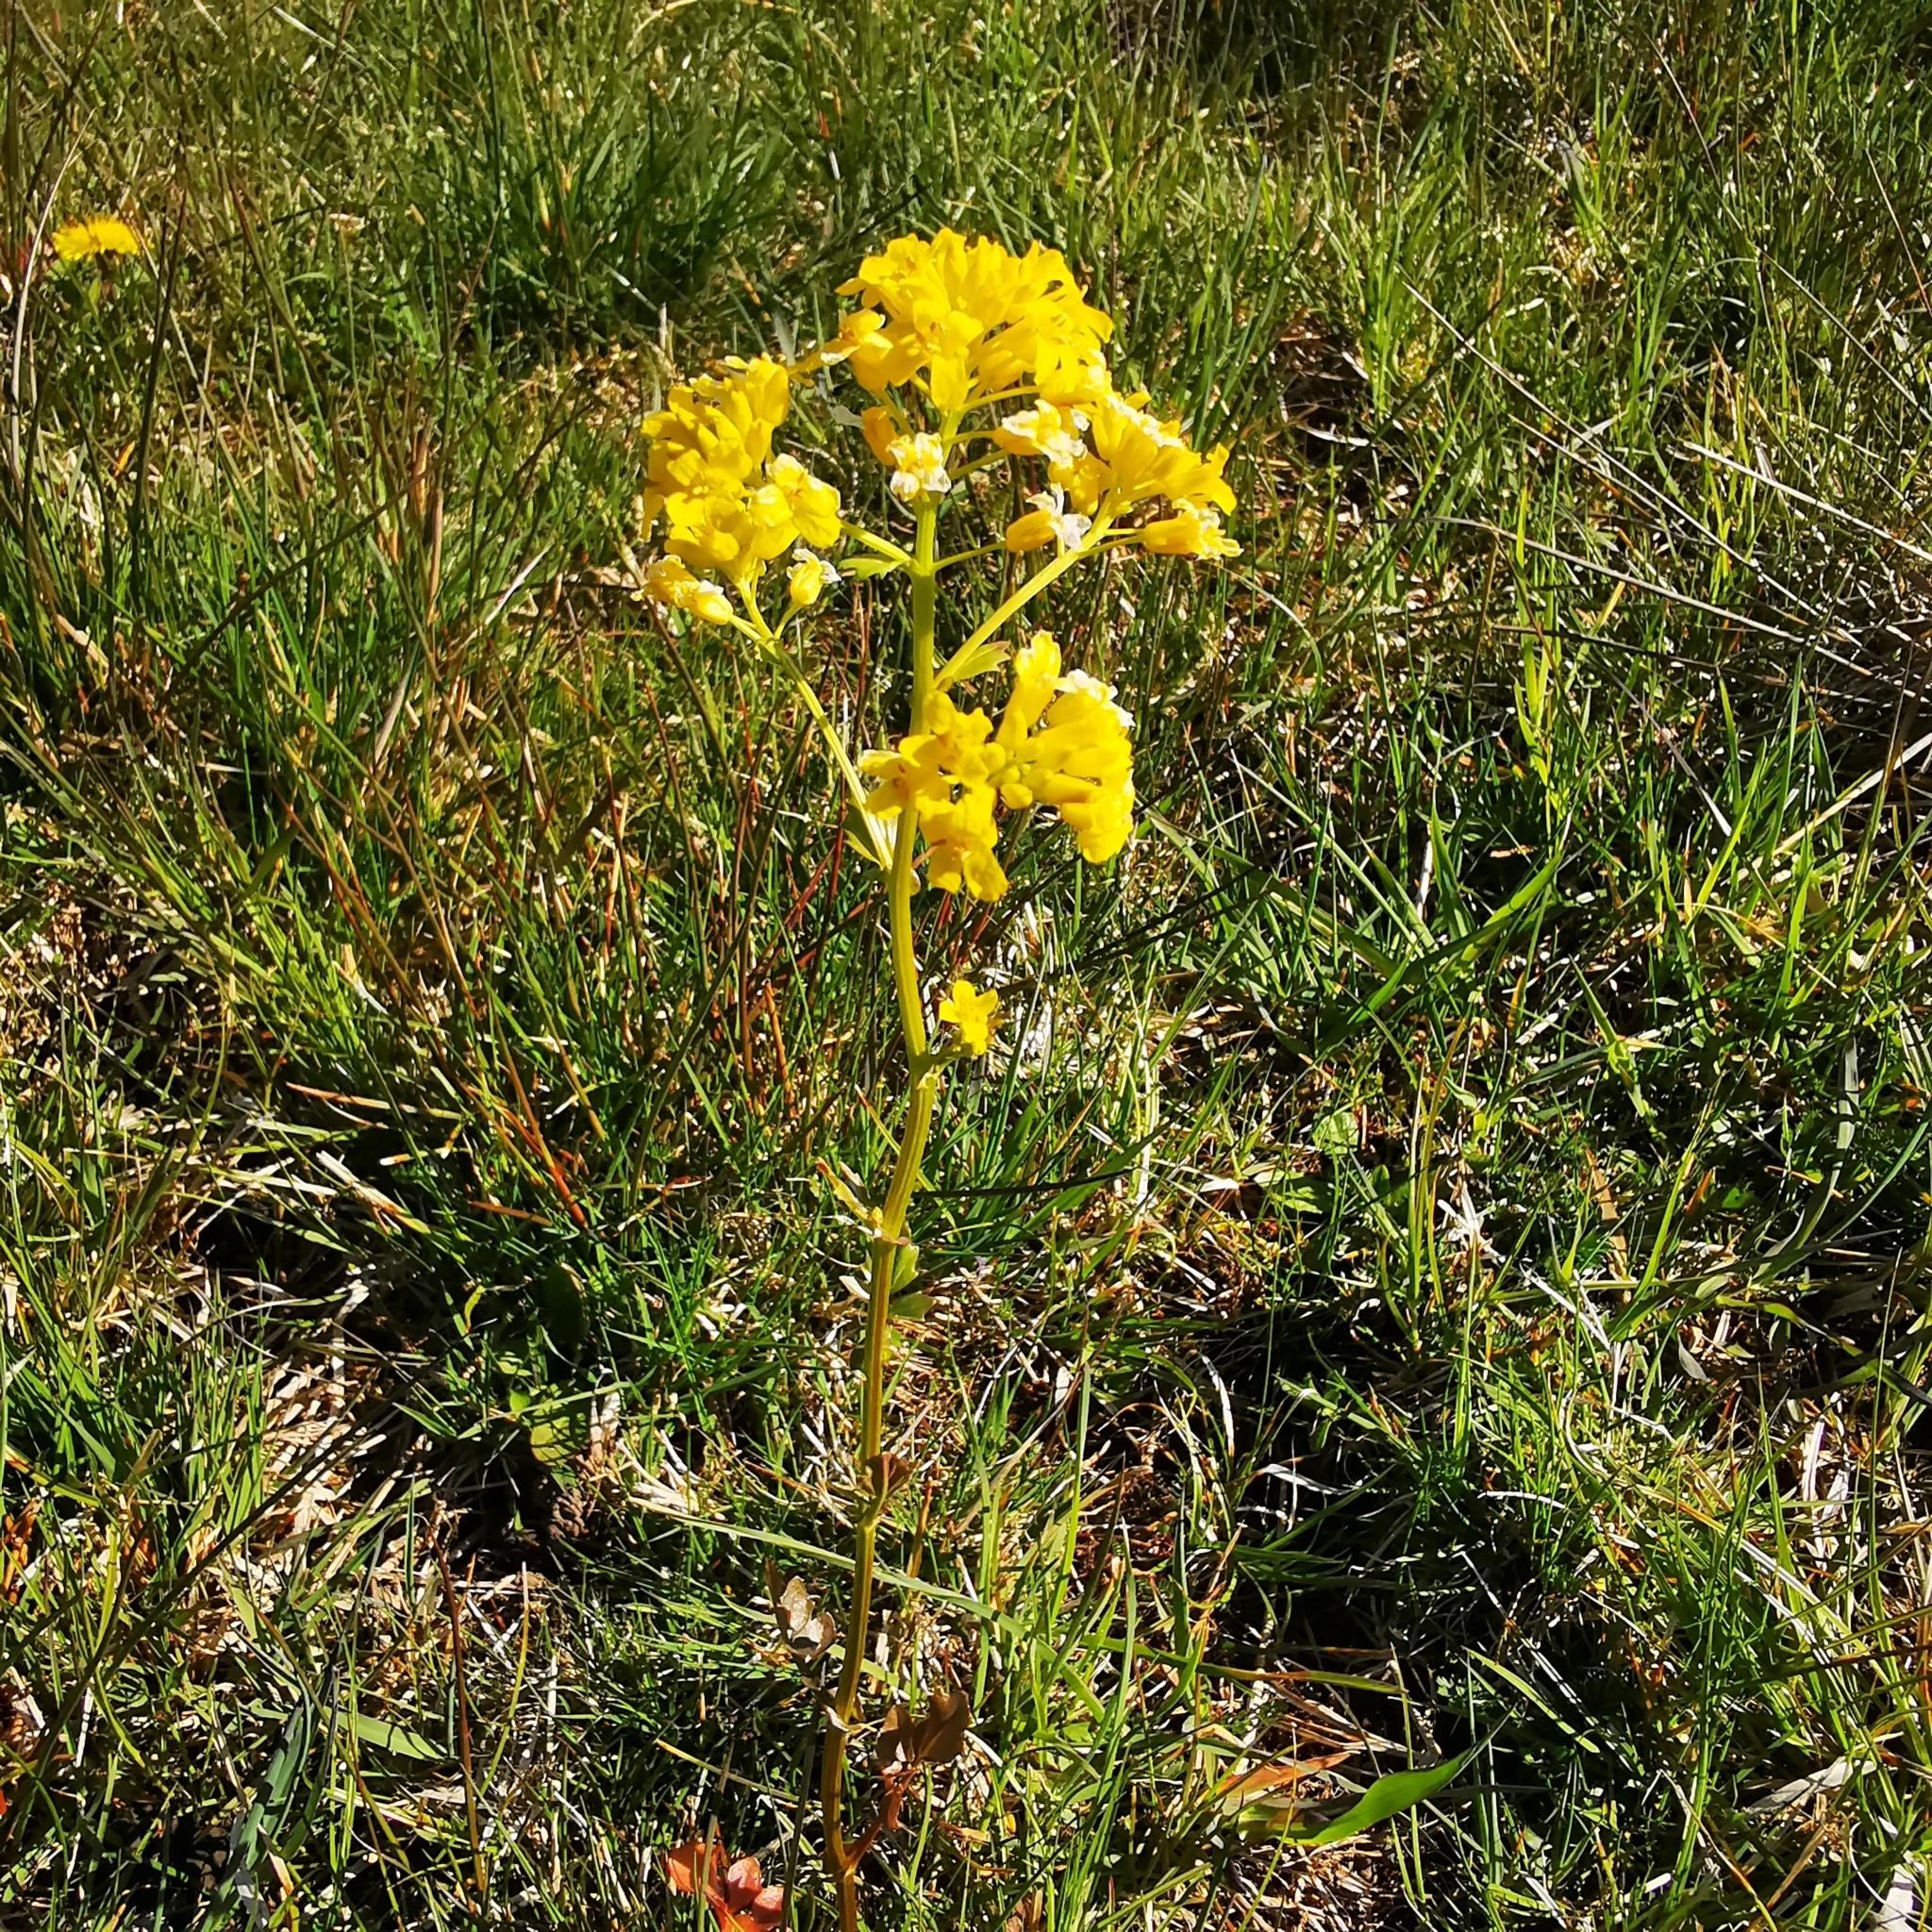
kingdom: Plantae
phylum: Tracheophyta
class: Magnoliopsida
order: Brassicales
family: Brassicaceae
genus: Barbarea
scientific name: Barbarea vulgaris
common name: Cressy-greens
